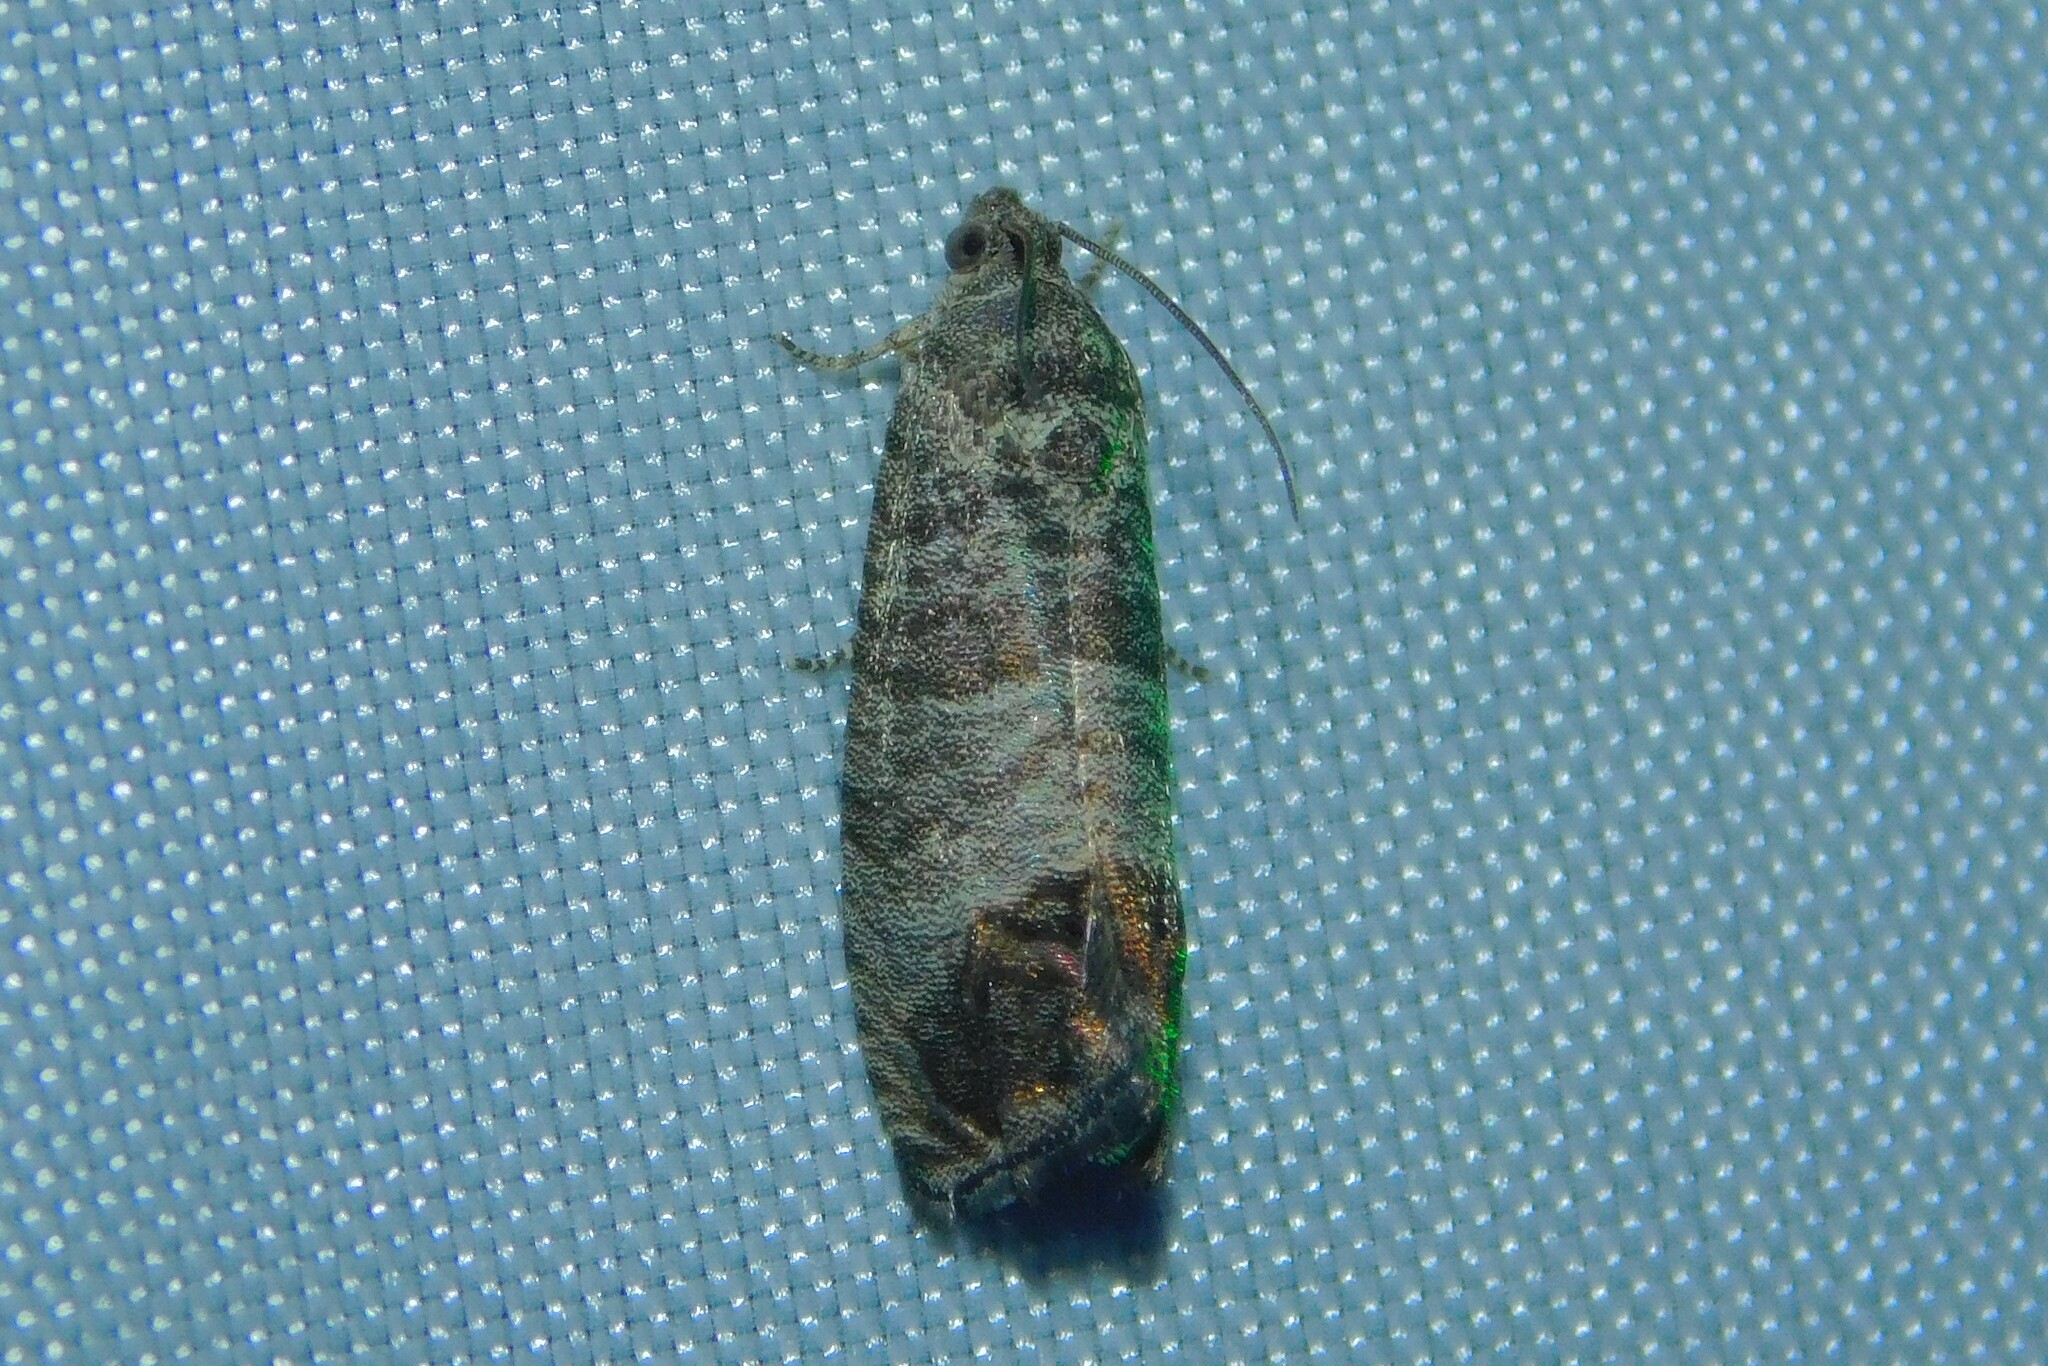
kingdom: Animalia
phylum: Arthropoda
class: Insecta
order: Lepidoptera
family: Tortricidae
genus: Cydia
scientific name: Cydia pomonella
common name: Codling moth
